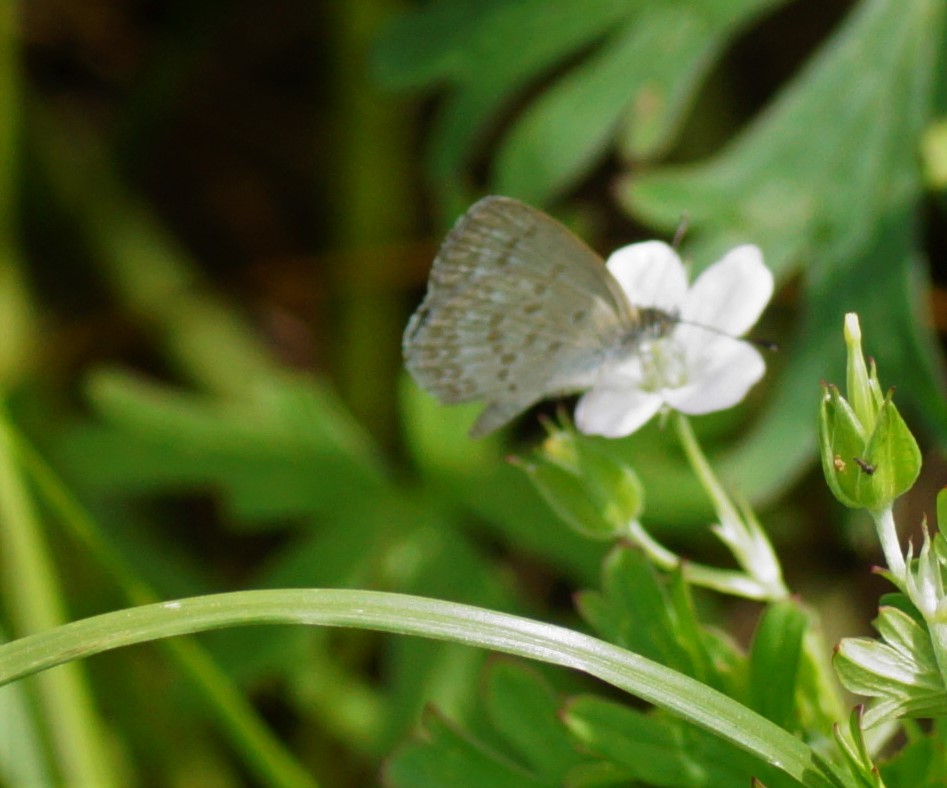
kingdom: Animalia
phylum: Arthropoda
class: Insecta
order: Lepidoptera
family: Lycaenidae
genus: Zizina
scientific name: Zizina otis
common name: Lesser grass blue
